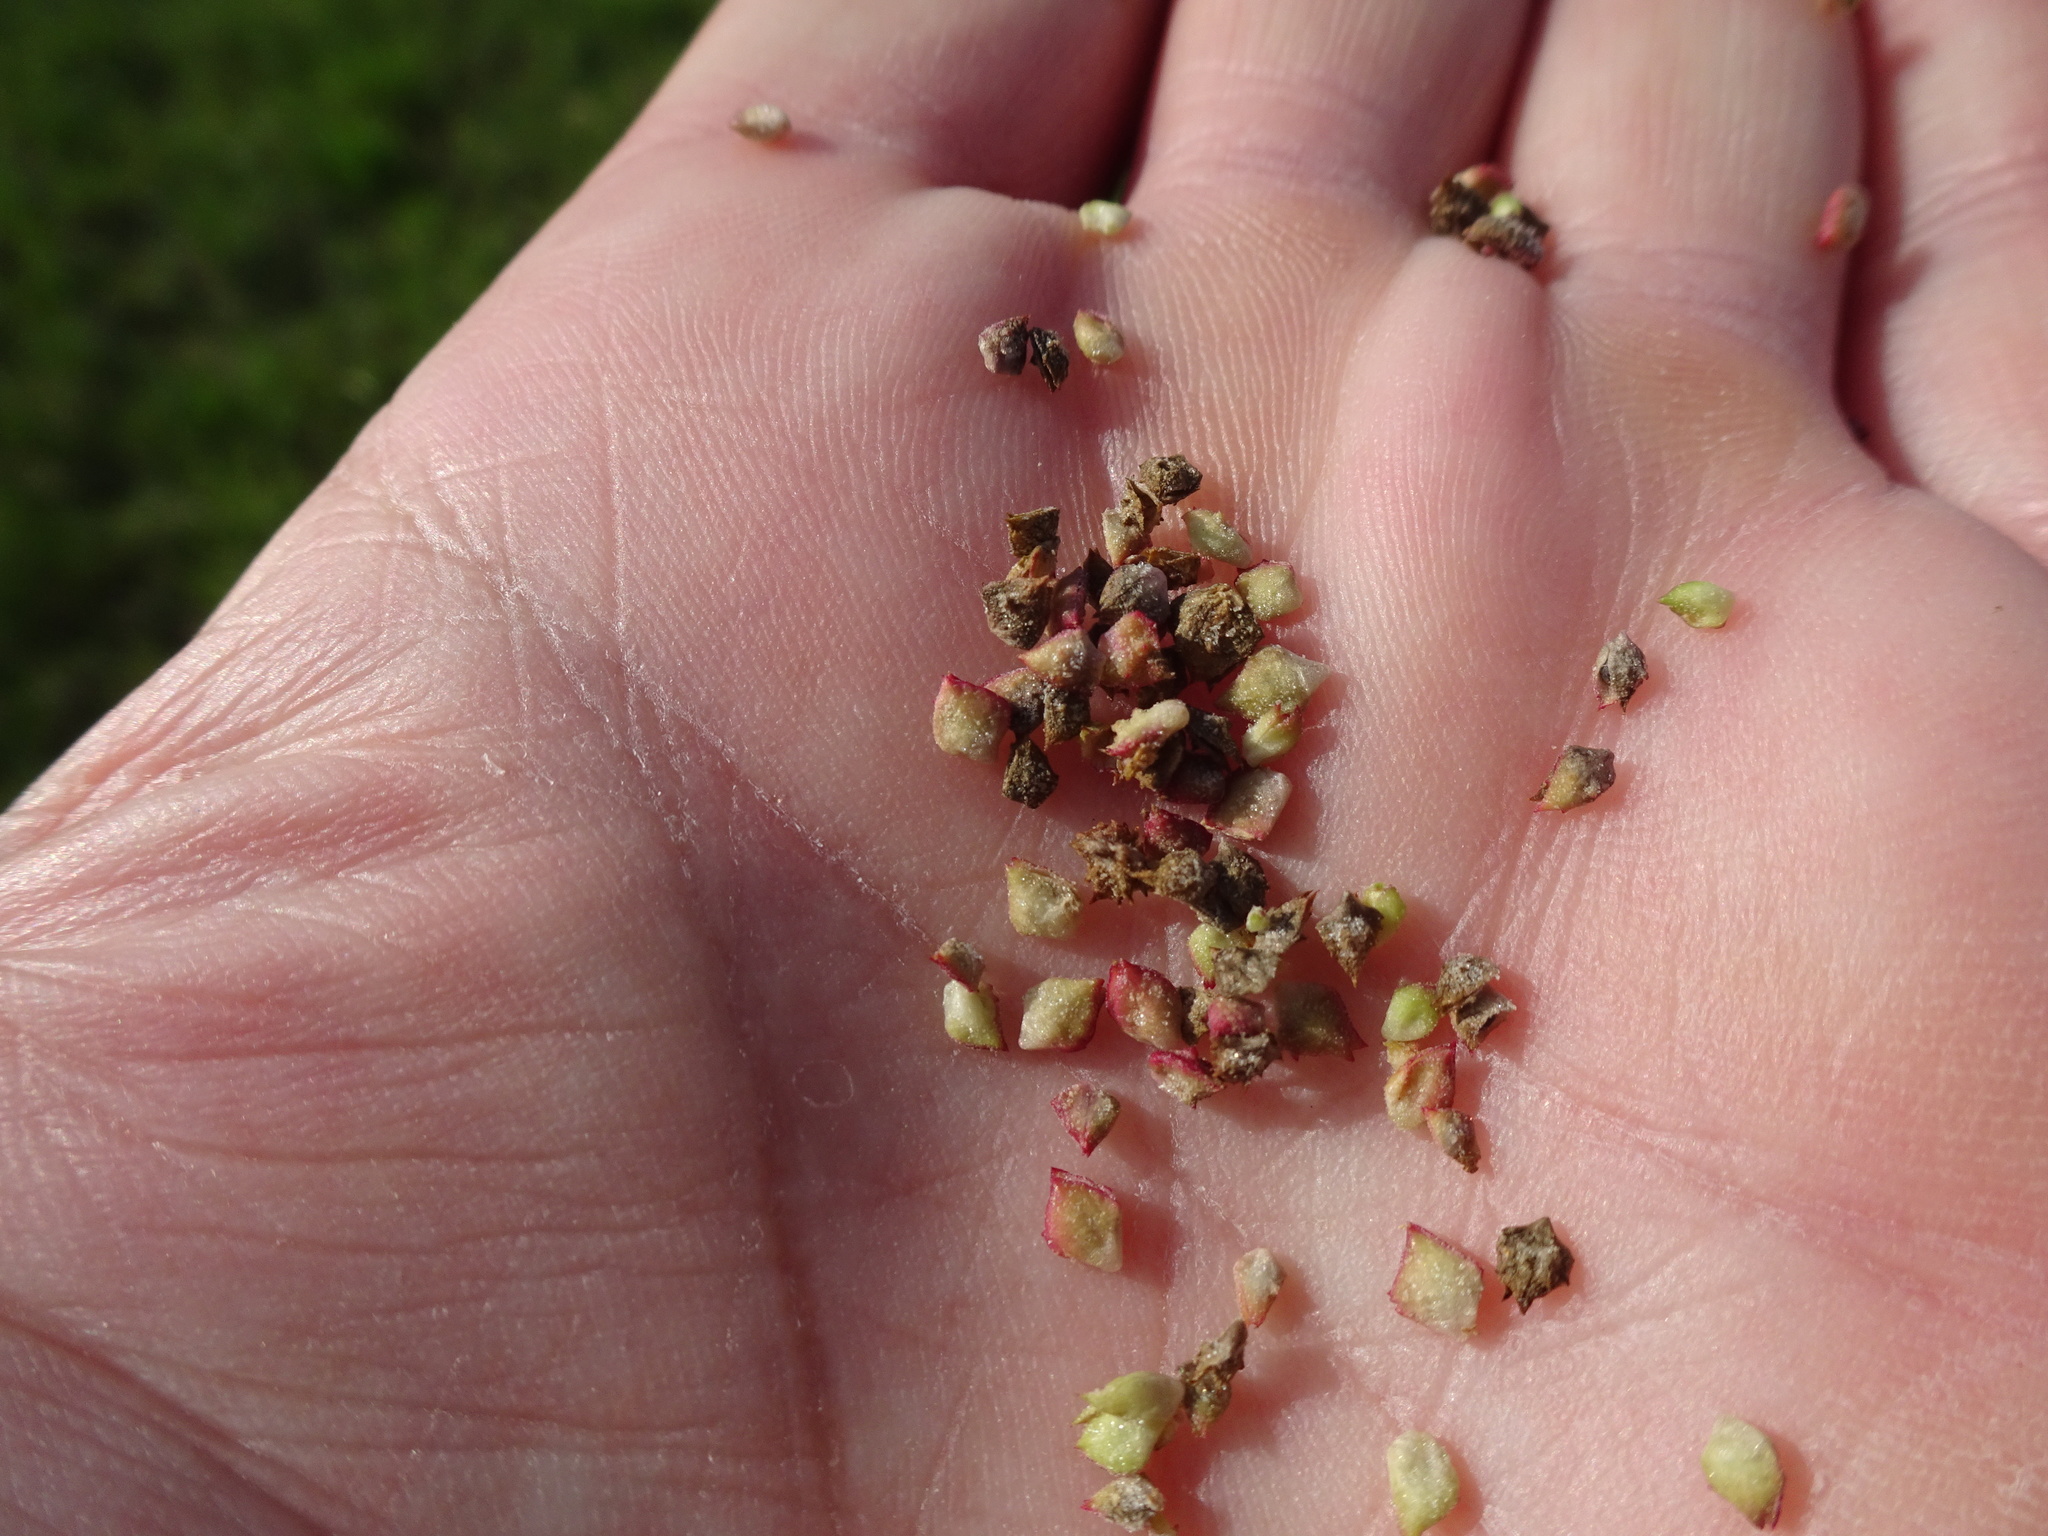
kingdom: Plantae
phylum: Tracheophyta
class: Magnoliopsida
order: Caryophyllales
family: Amaranthaceae
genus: Atriplex
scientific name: Atriplex prostrata
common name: Spear-leaved orache
